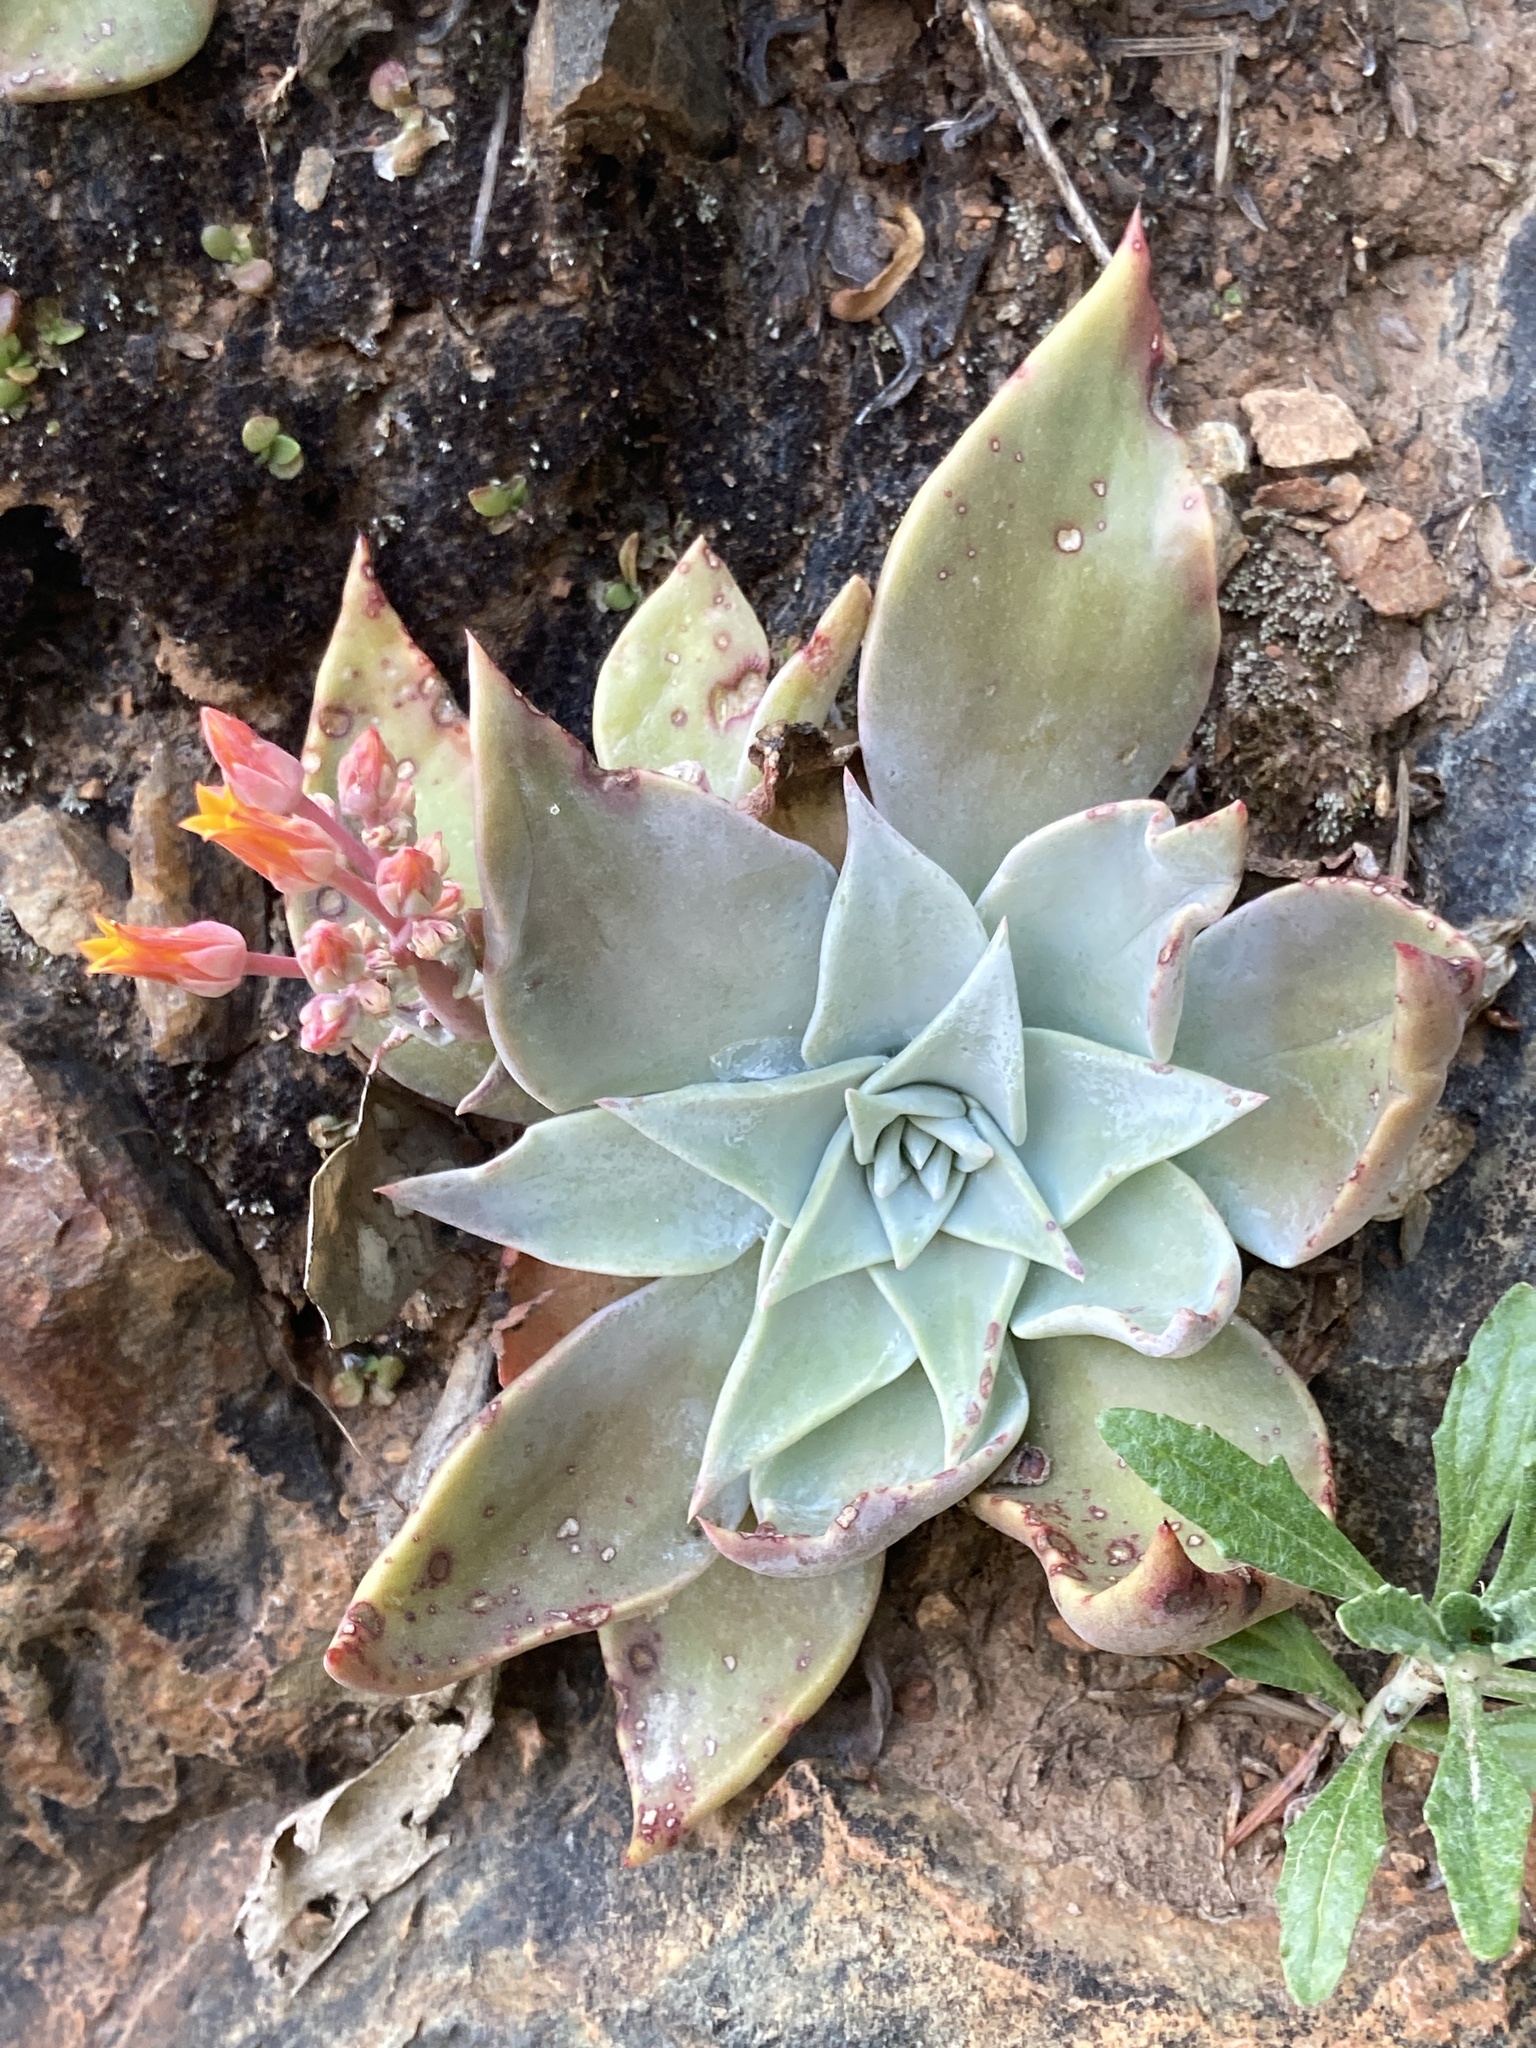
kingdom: Plantae
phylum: Tracheophyta
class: Magnoliopsida
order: Saxifragales
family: Crassulaceae
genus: Dudleya
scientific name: Dudleya cymosa
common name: Canyon dudleya
